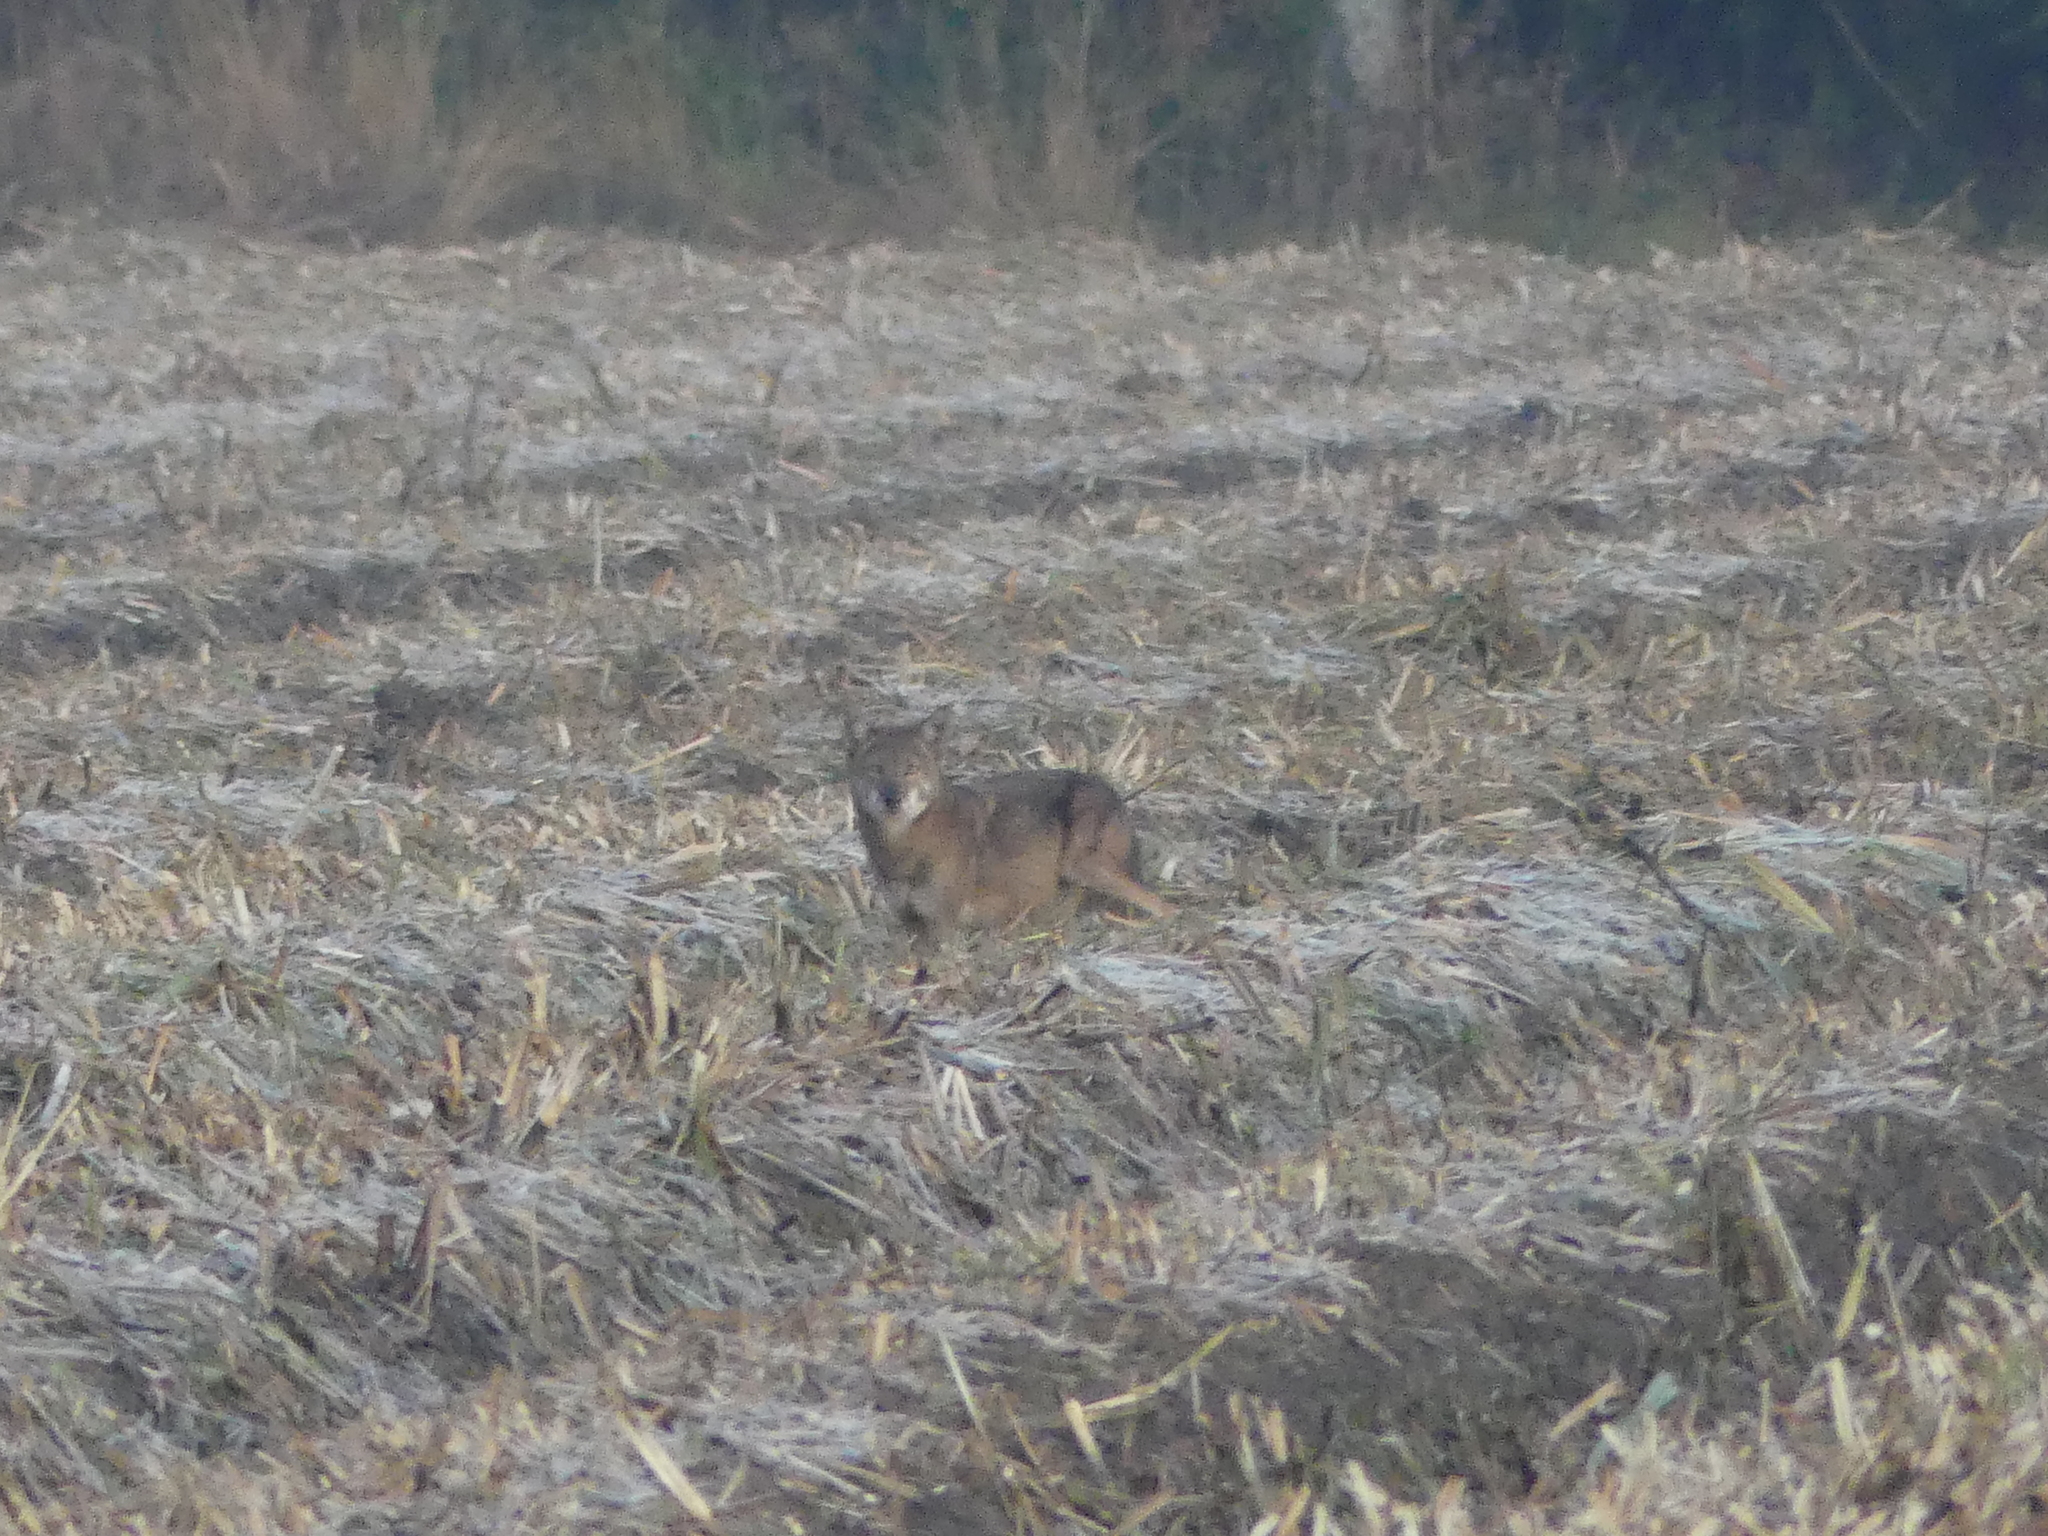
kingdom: Animalia
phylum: Chordata
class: Mammalia
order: Carnivora
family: Canidae
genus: Canis
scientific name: Canis latrans
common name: Coyote
